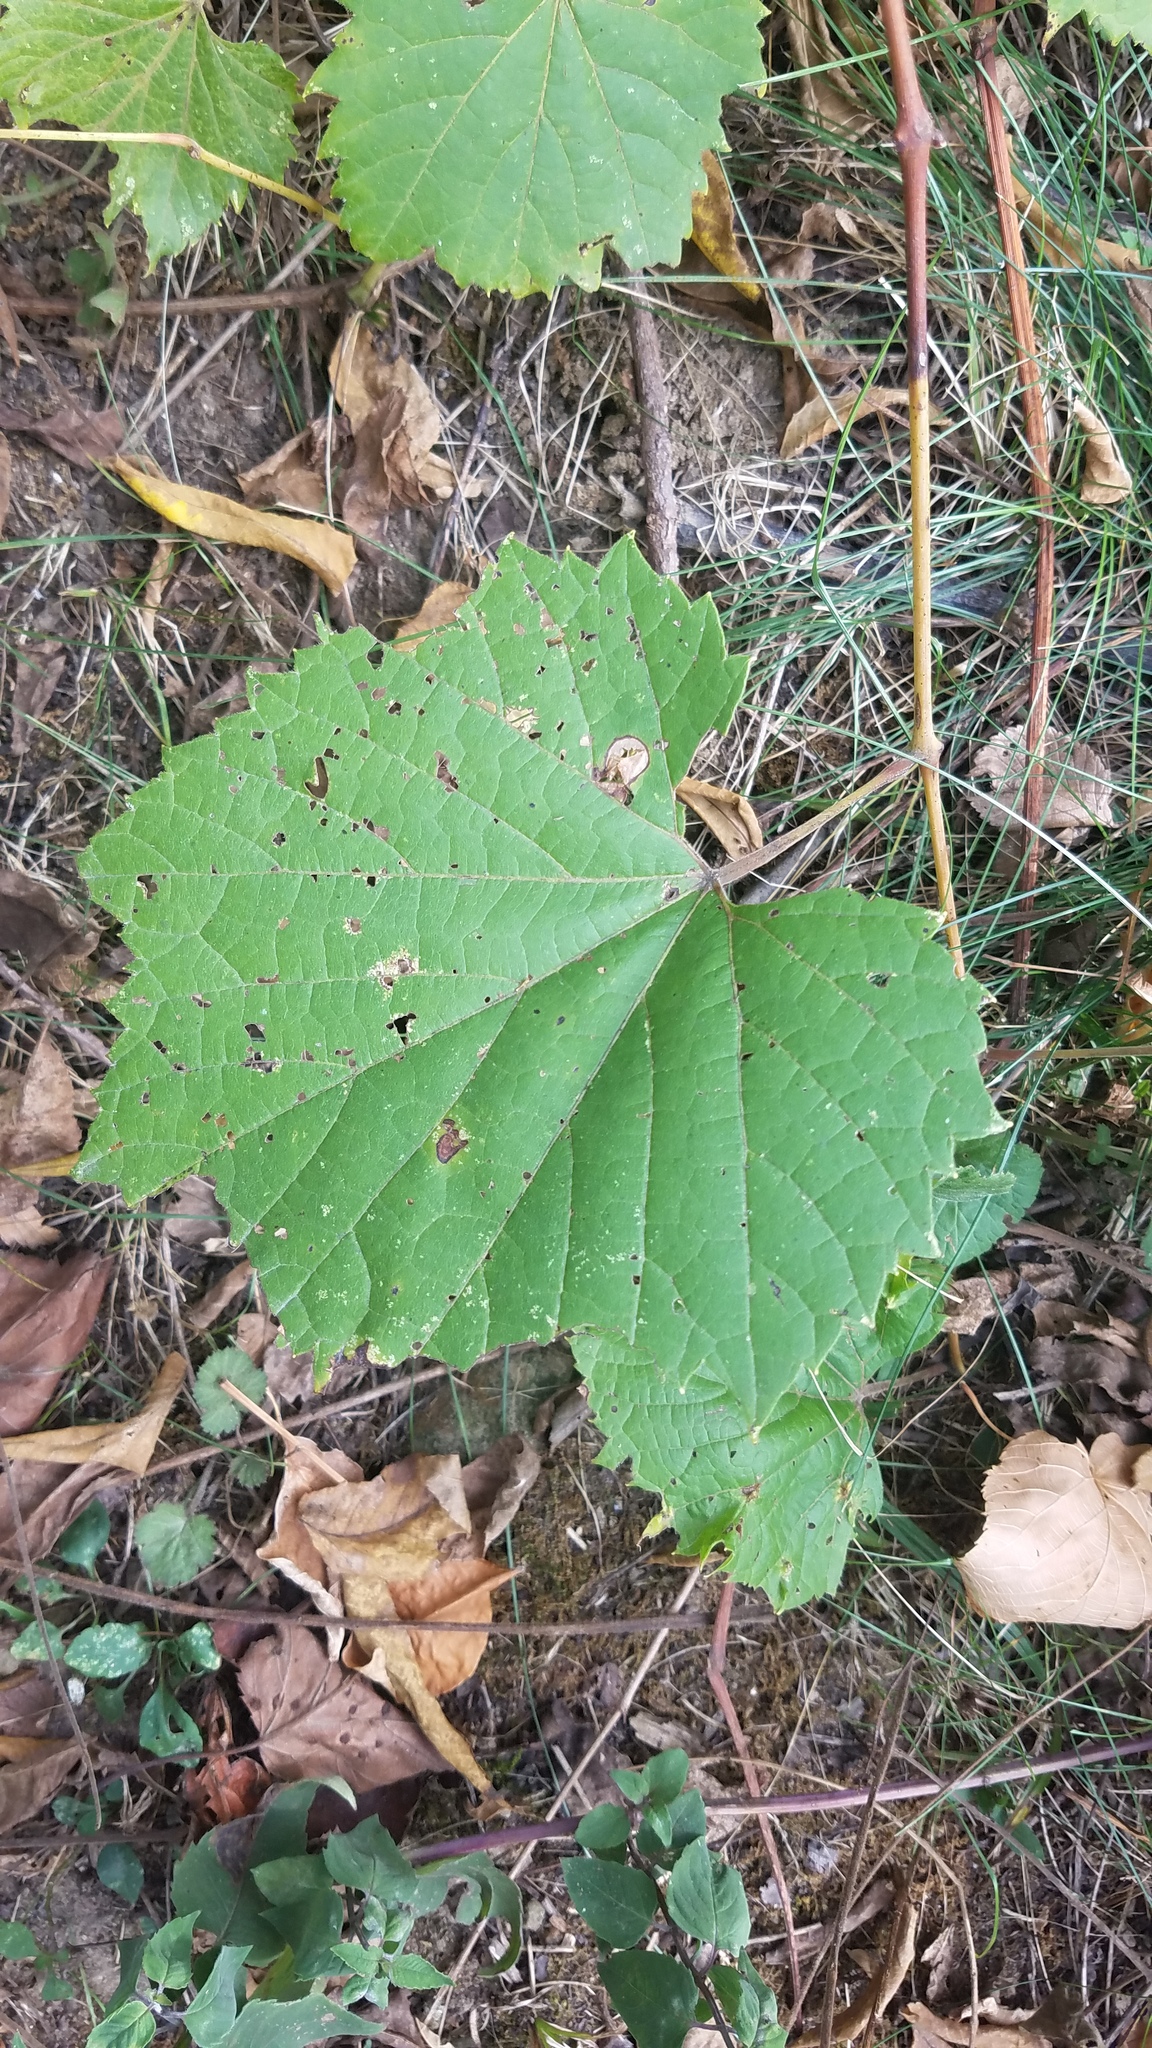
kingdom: Plantae
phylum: Tracheophyta
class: Magnoliopsida
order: Vitales
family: Vitaceae
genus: Vitis
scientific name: Vitis riparia
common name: Frost grape
